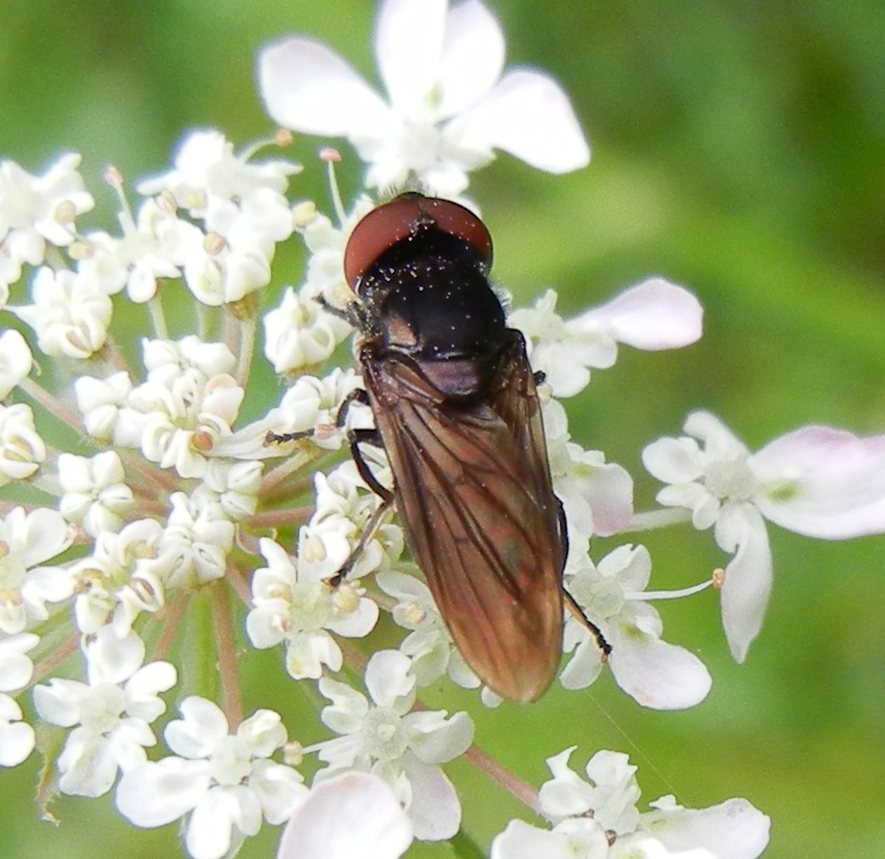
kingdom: Animalia
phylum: Arthropoda
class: Insecta
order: Diptera
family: Syrphidae
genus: Chrysogaster
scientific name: Chrysogaster solstitialis
